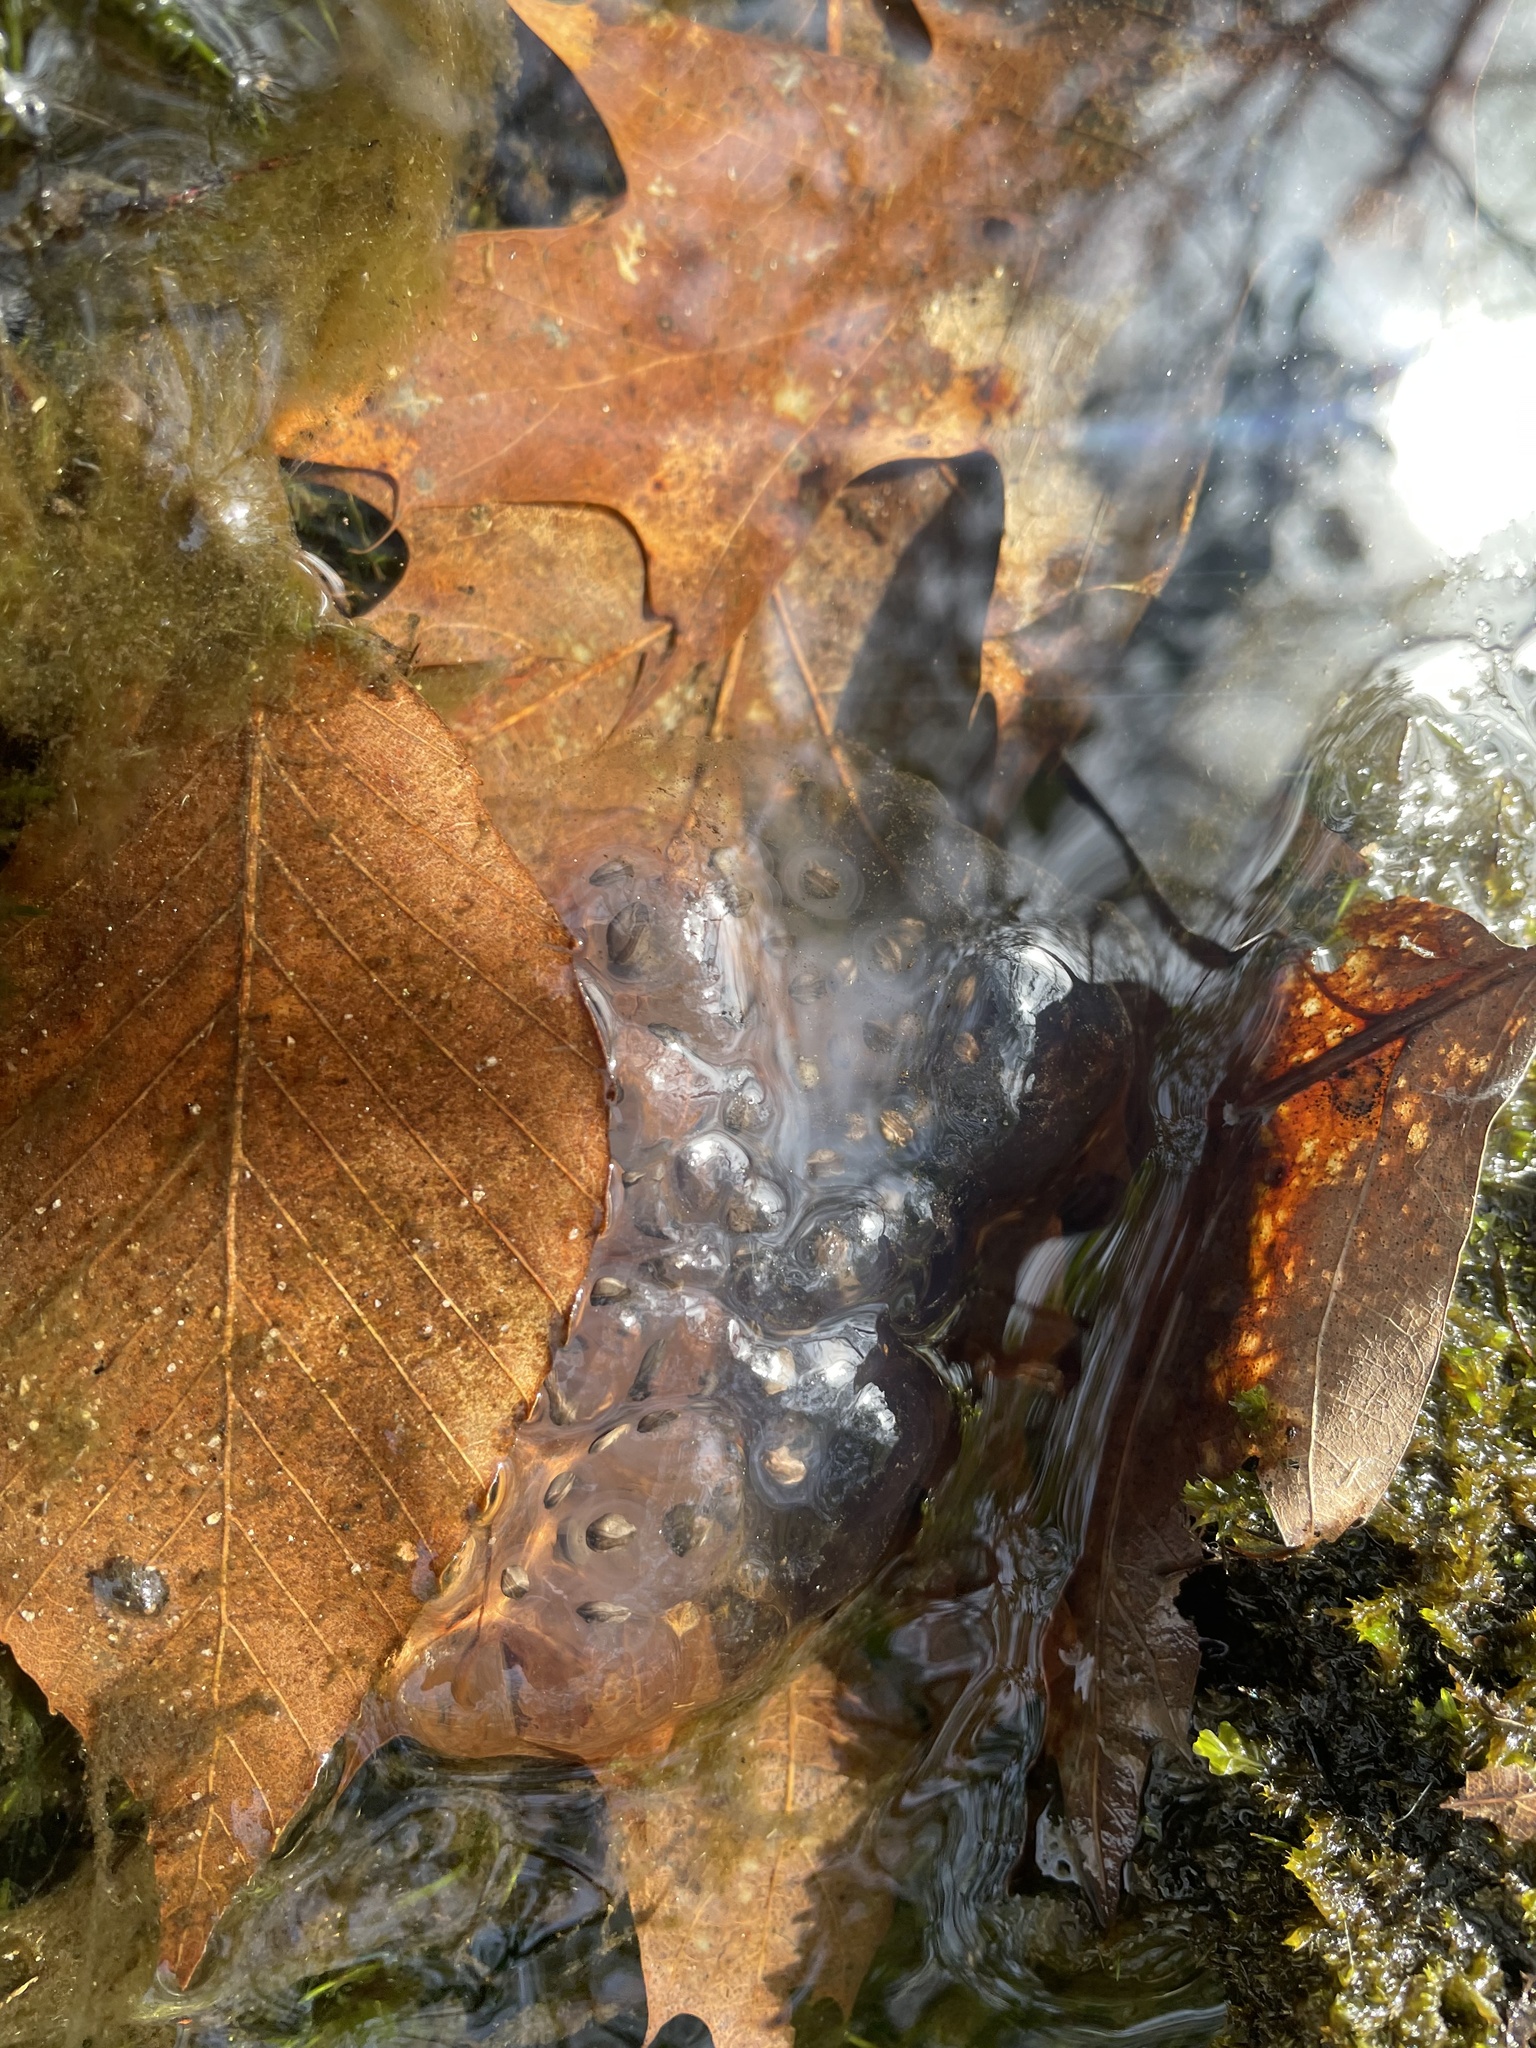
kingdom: Animalia
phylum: Chordata
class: Amphibia
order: Caudata
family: Ambystomatidae
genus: Ambystoma
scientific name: Ambystoma maculatum
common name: Spotted salamander
